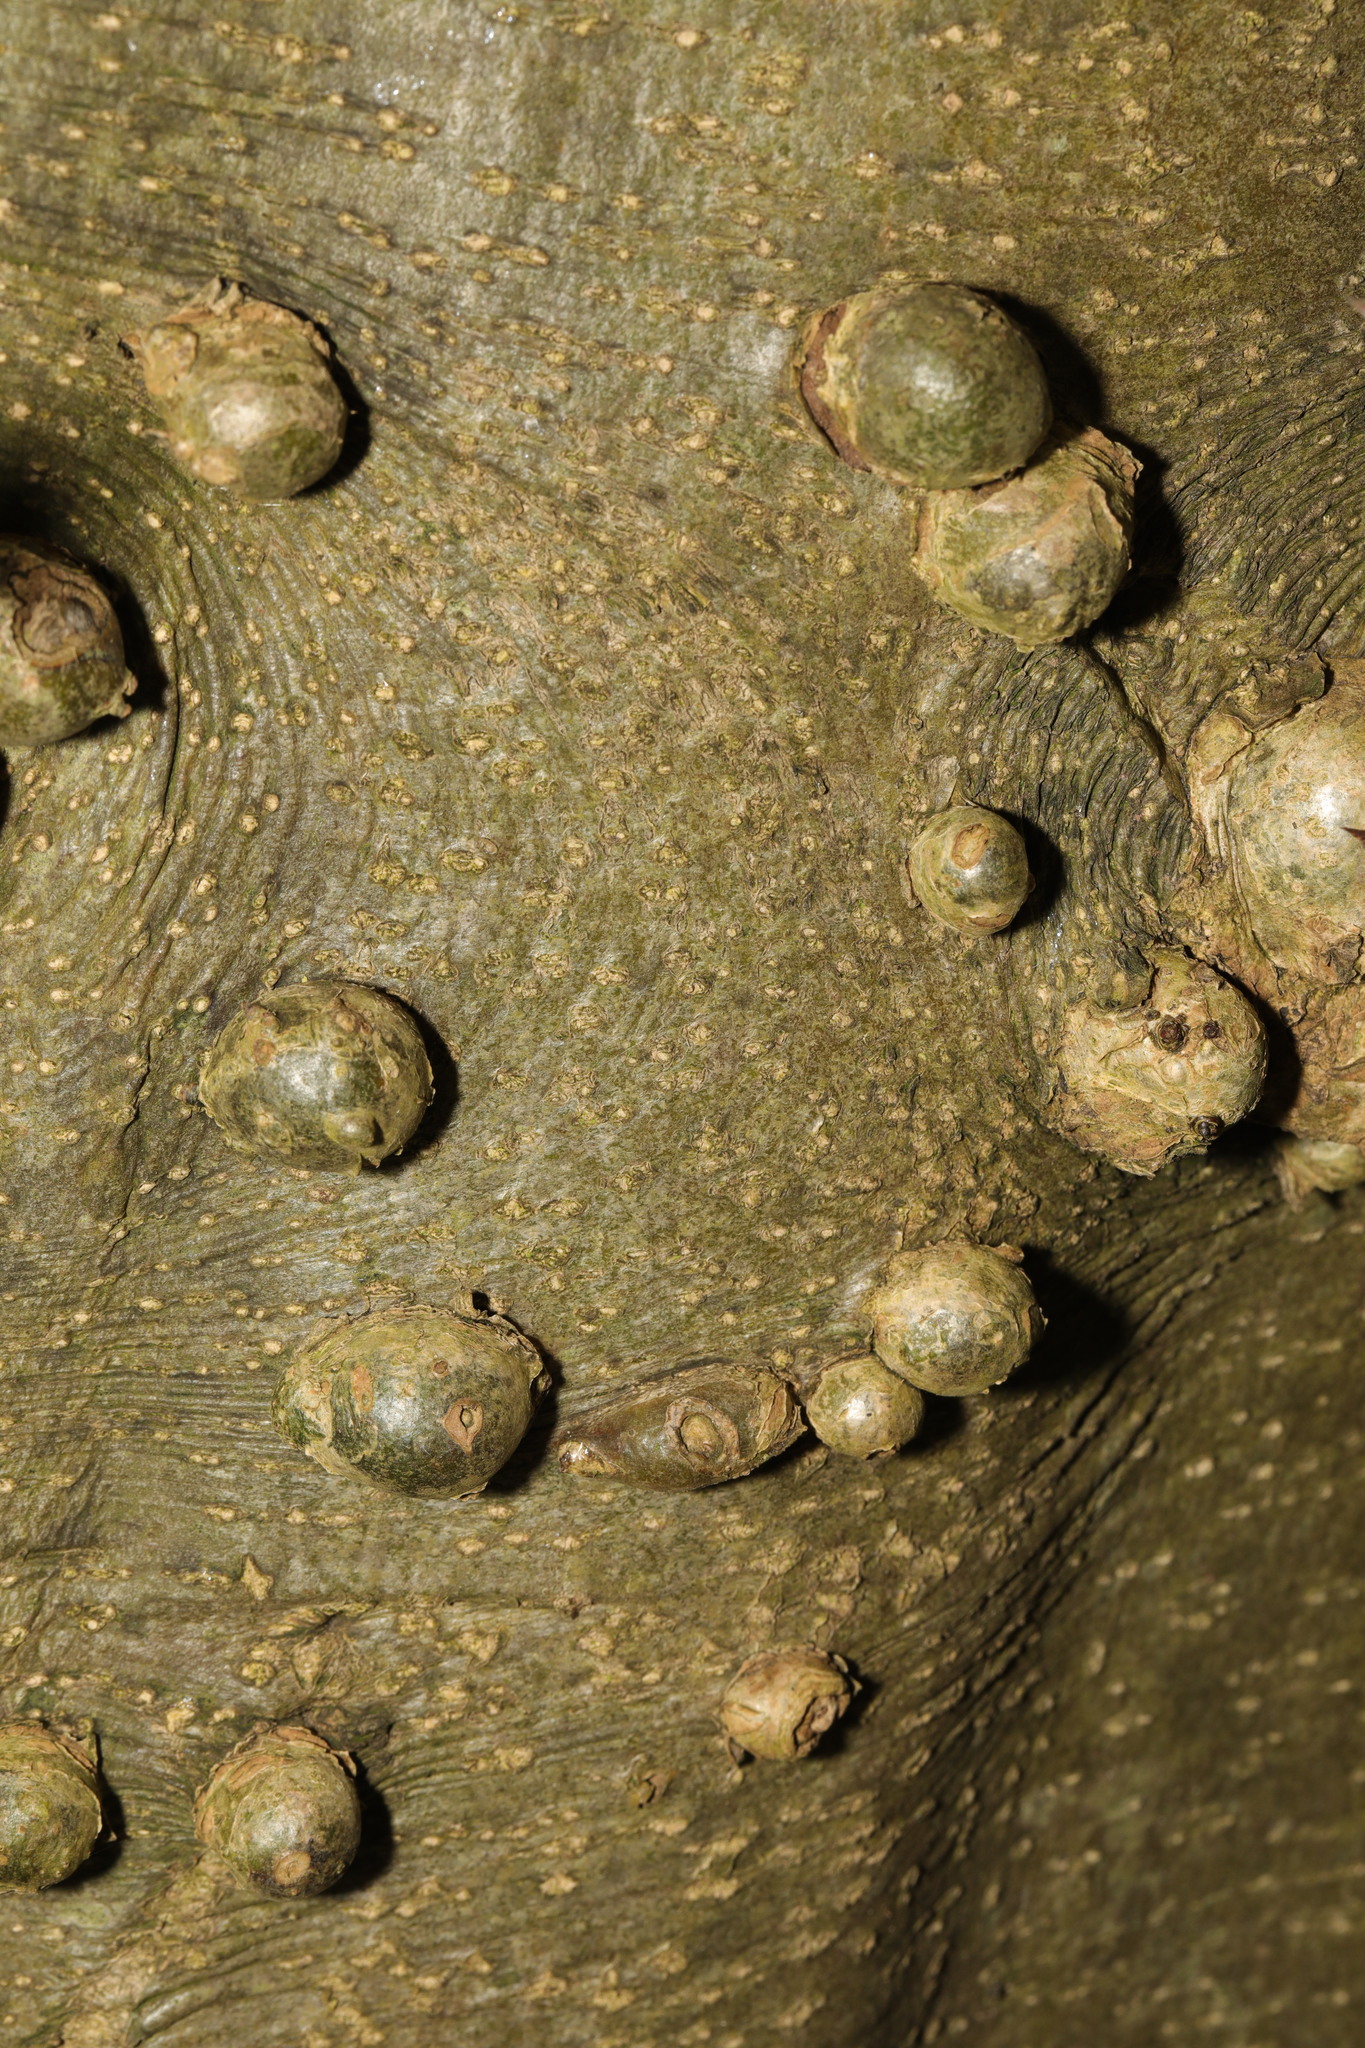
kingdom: Plantae
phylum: Tracheophyta
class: Magnoliopsida
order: Aquifoliales
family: Aquifoliaceae
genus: Ilex
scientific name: Ilex altaclerensis
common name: Highclere holly
